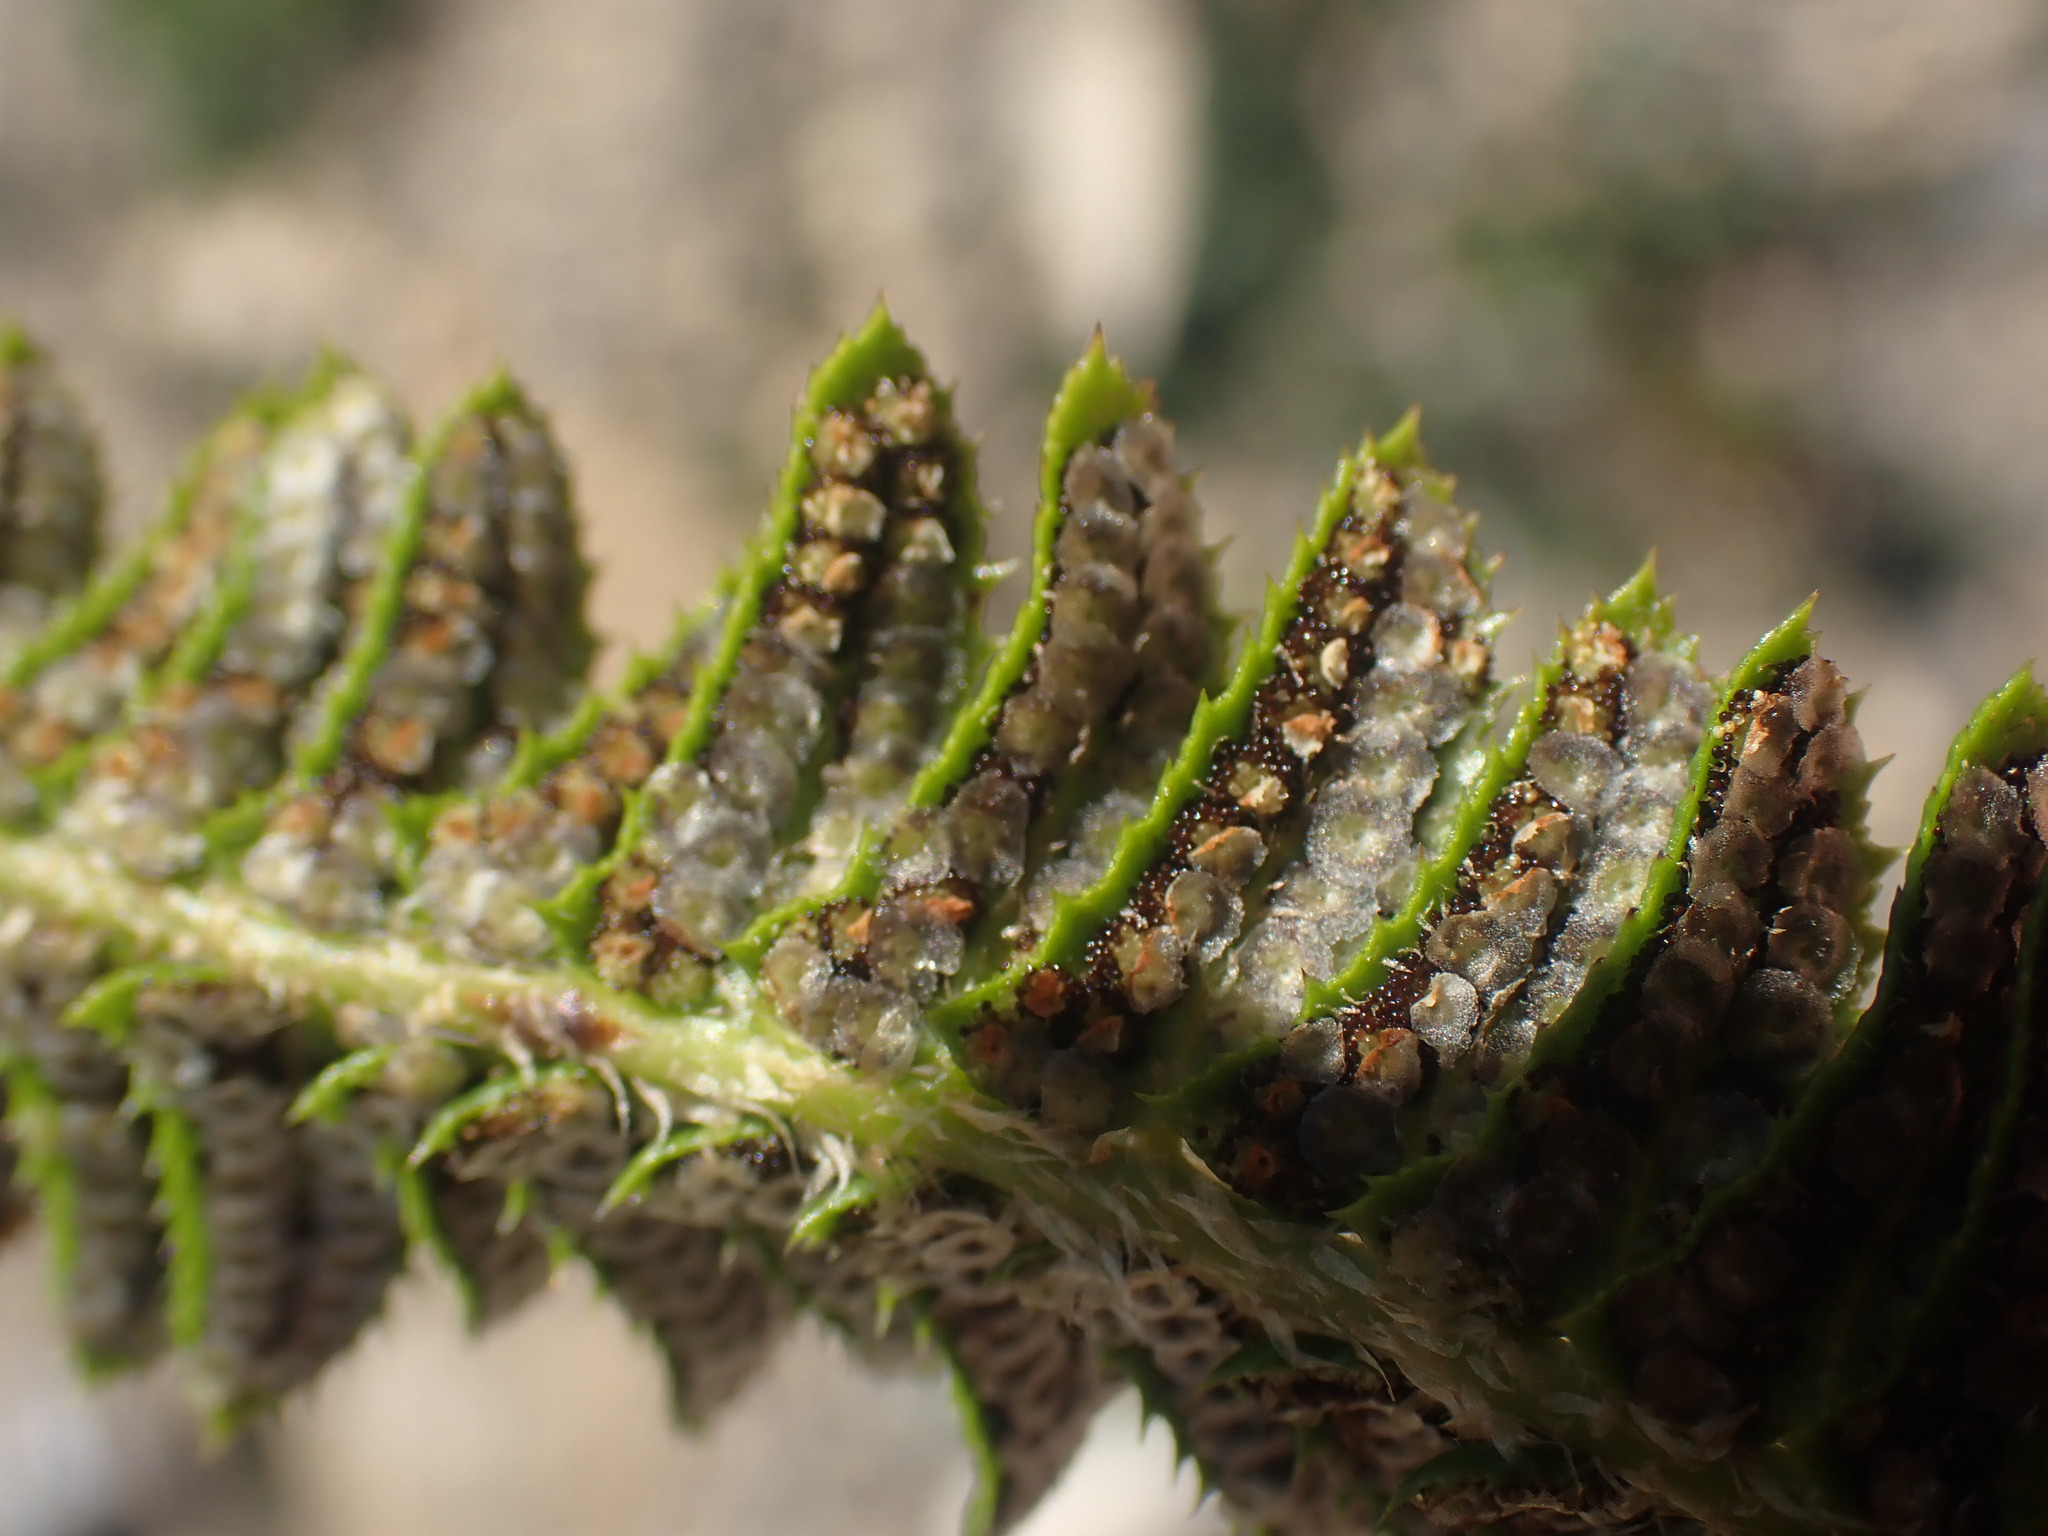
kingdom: Plantae
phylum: Tracheophyta
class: Polypodiopsida
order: Polypodiales
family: Dryopteridaceae
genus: Polystichum
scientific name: Polystichum lonchitis
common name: Holly fern
